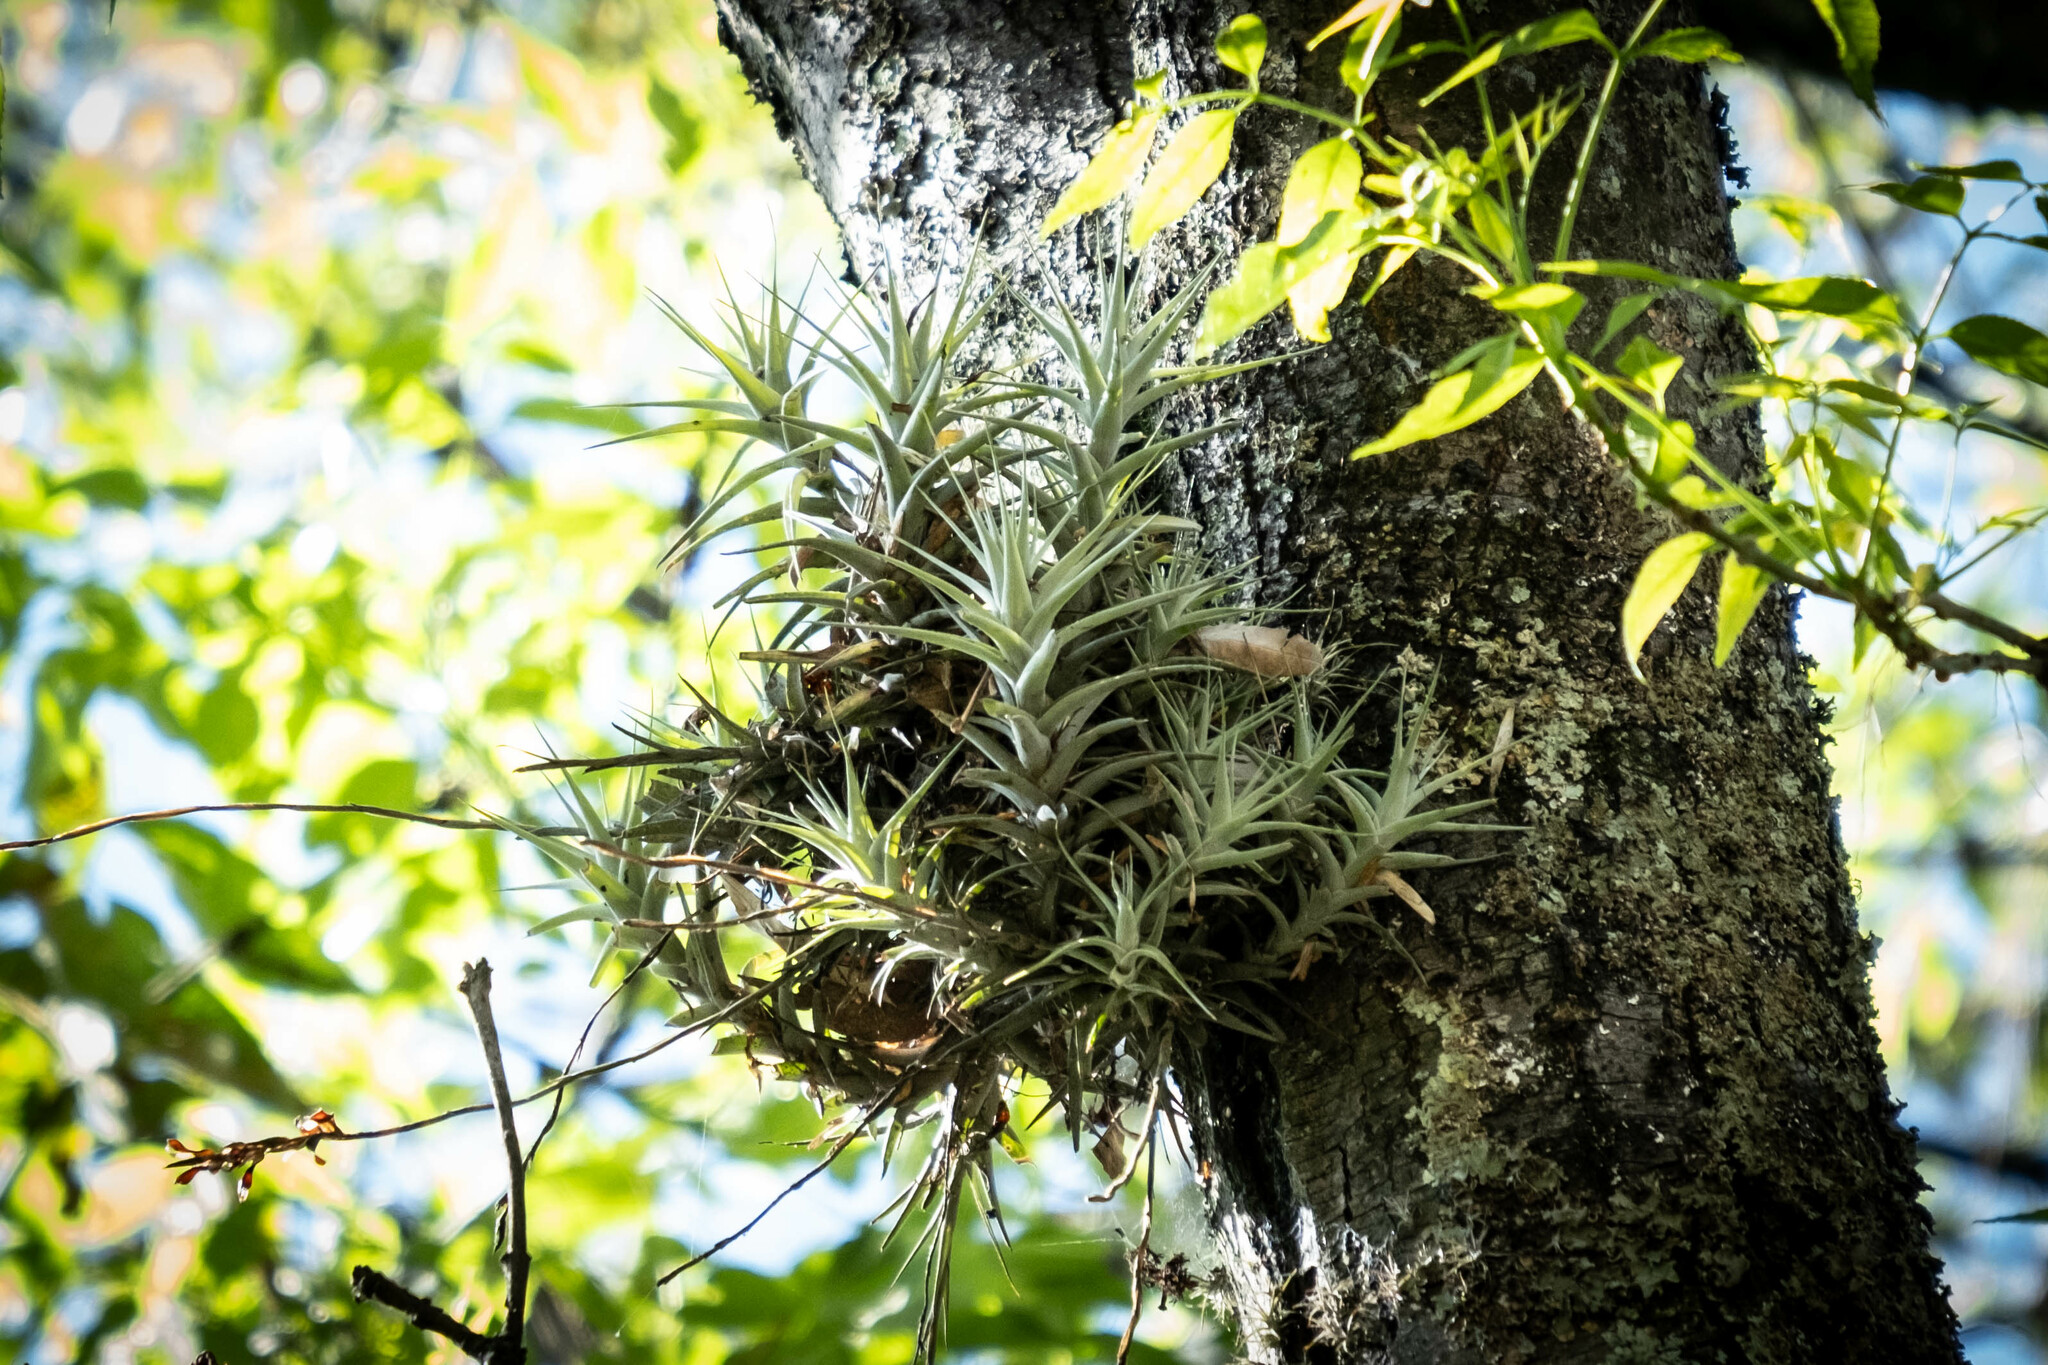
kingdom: Plantae
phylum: Tracheophyta
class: Liliopsida
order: Poales
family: Bromeliaceae
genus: Tillandsia
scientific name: Tillandsia incarnata
